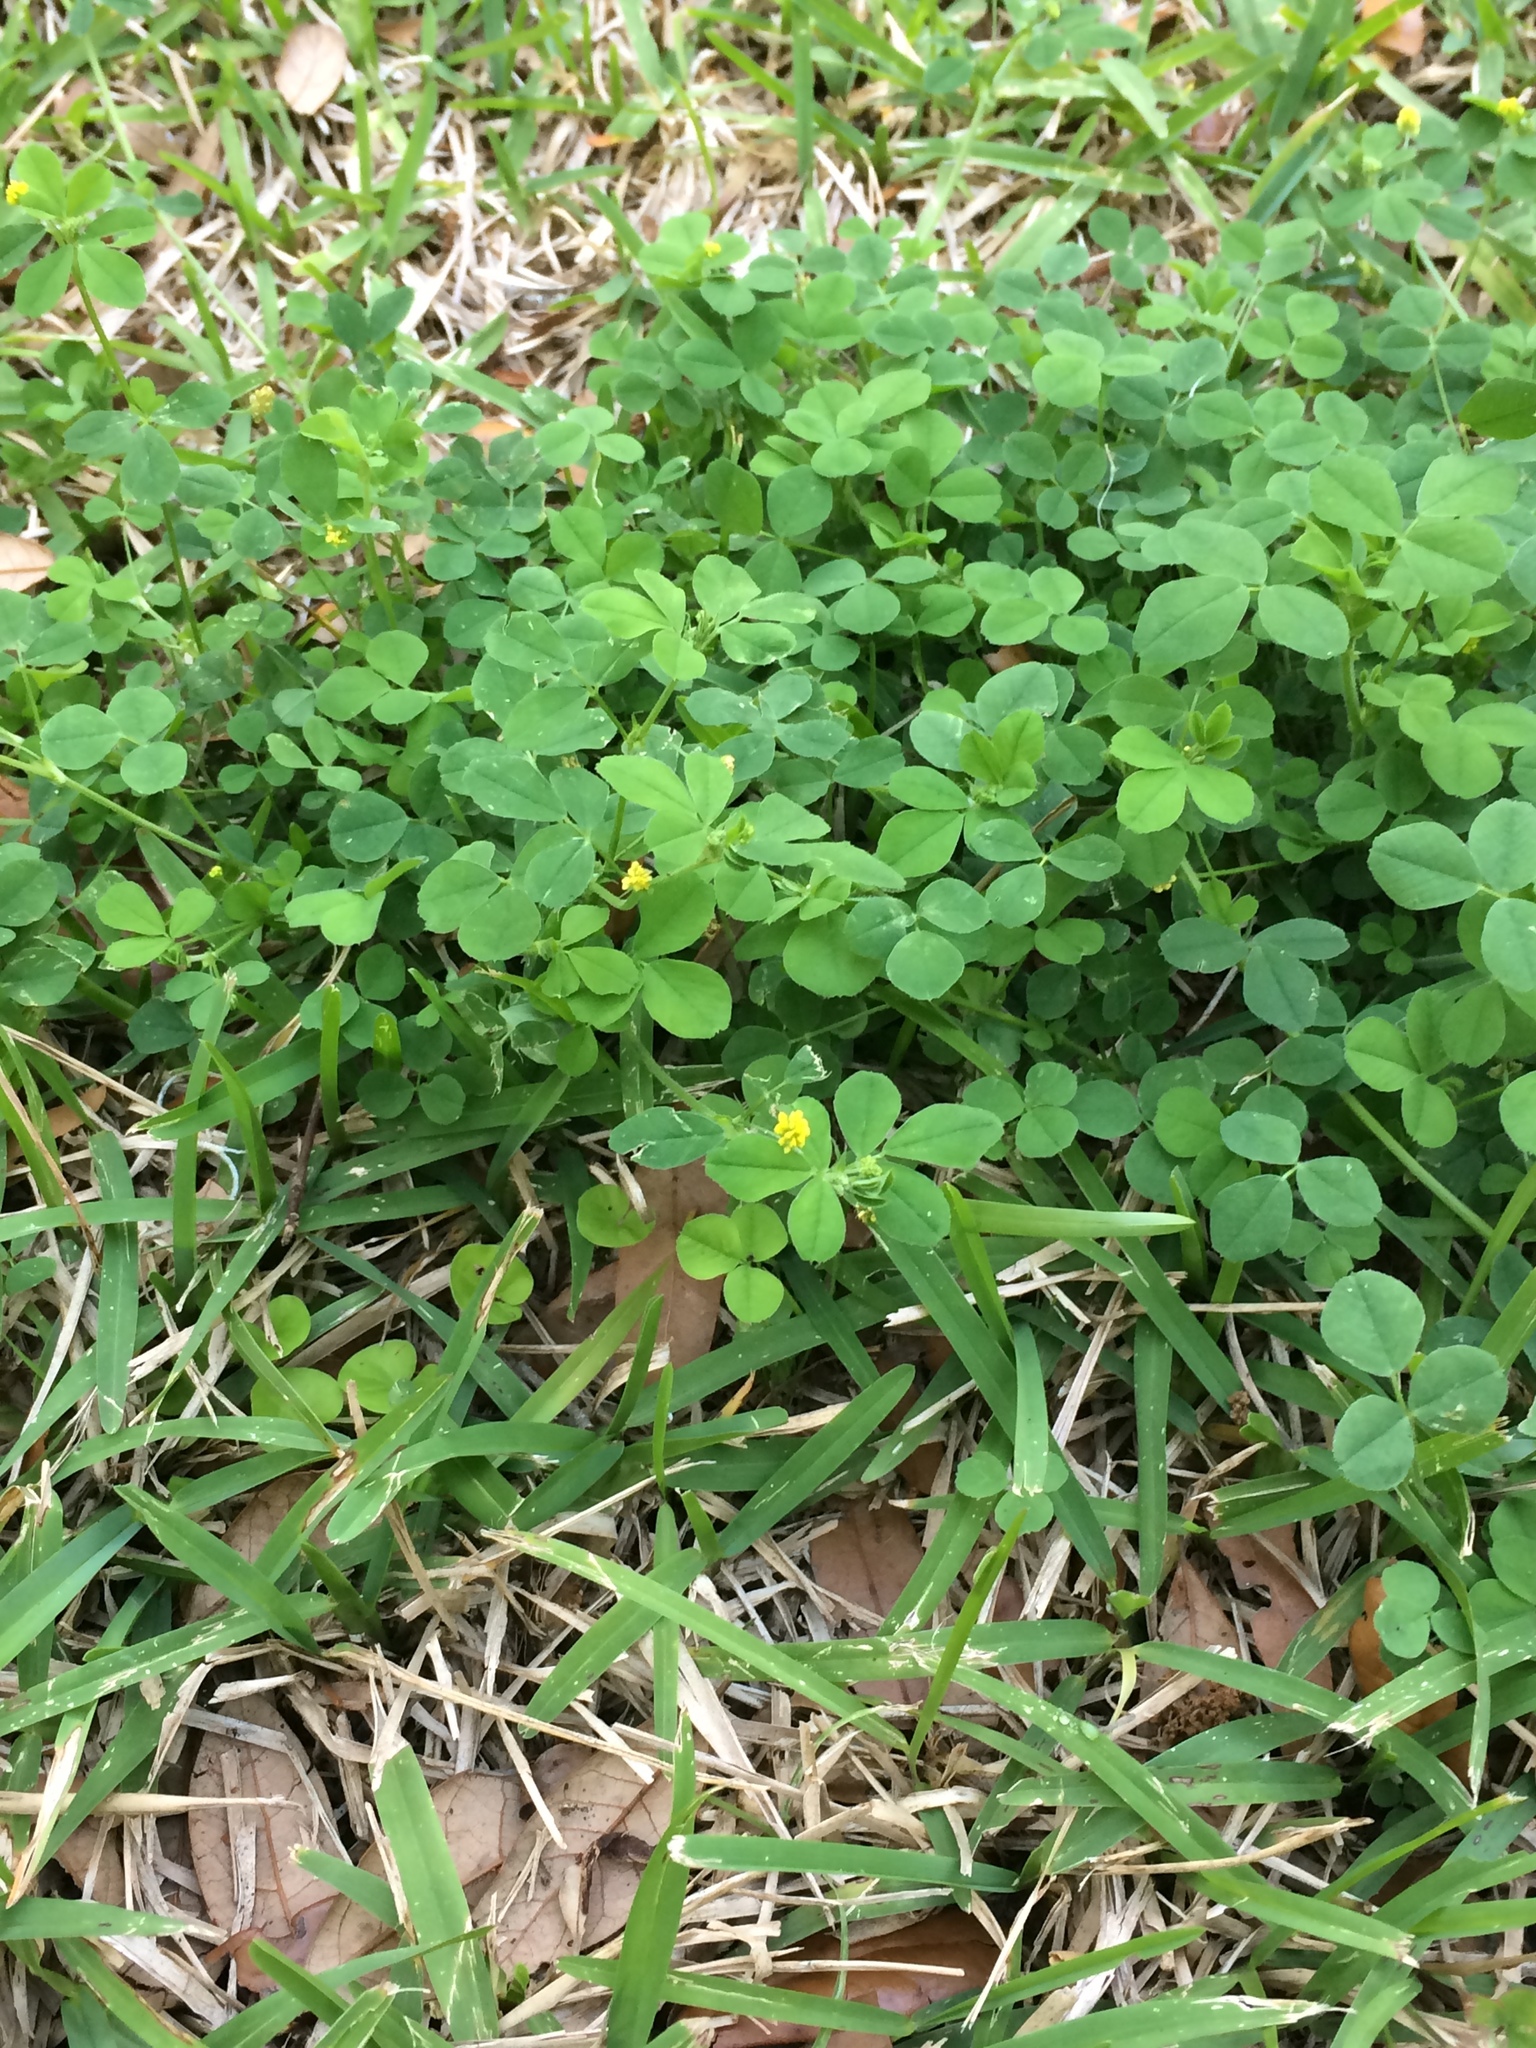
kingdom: Plantae
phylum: Tracheophyta
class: Magnoliopsida
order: Fabales
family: Fabaceae
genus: Medicago
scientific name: Medicago lupulina
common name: Black medick
